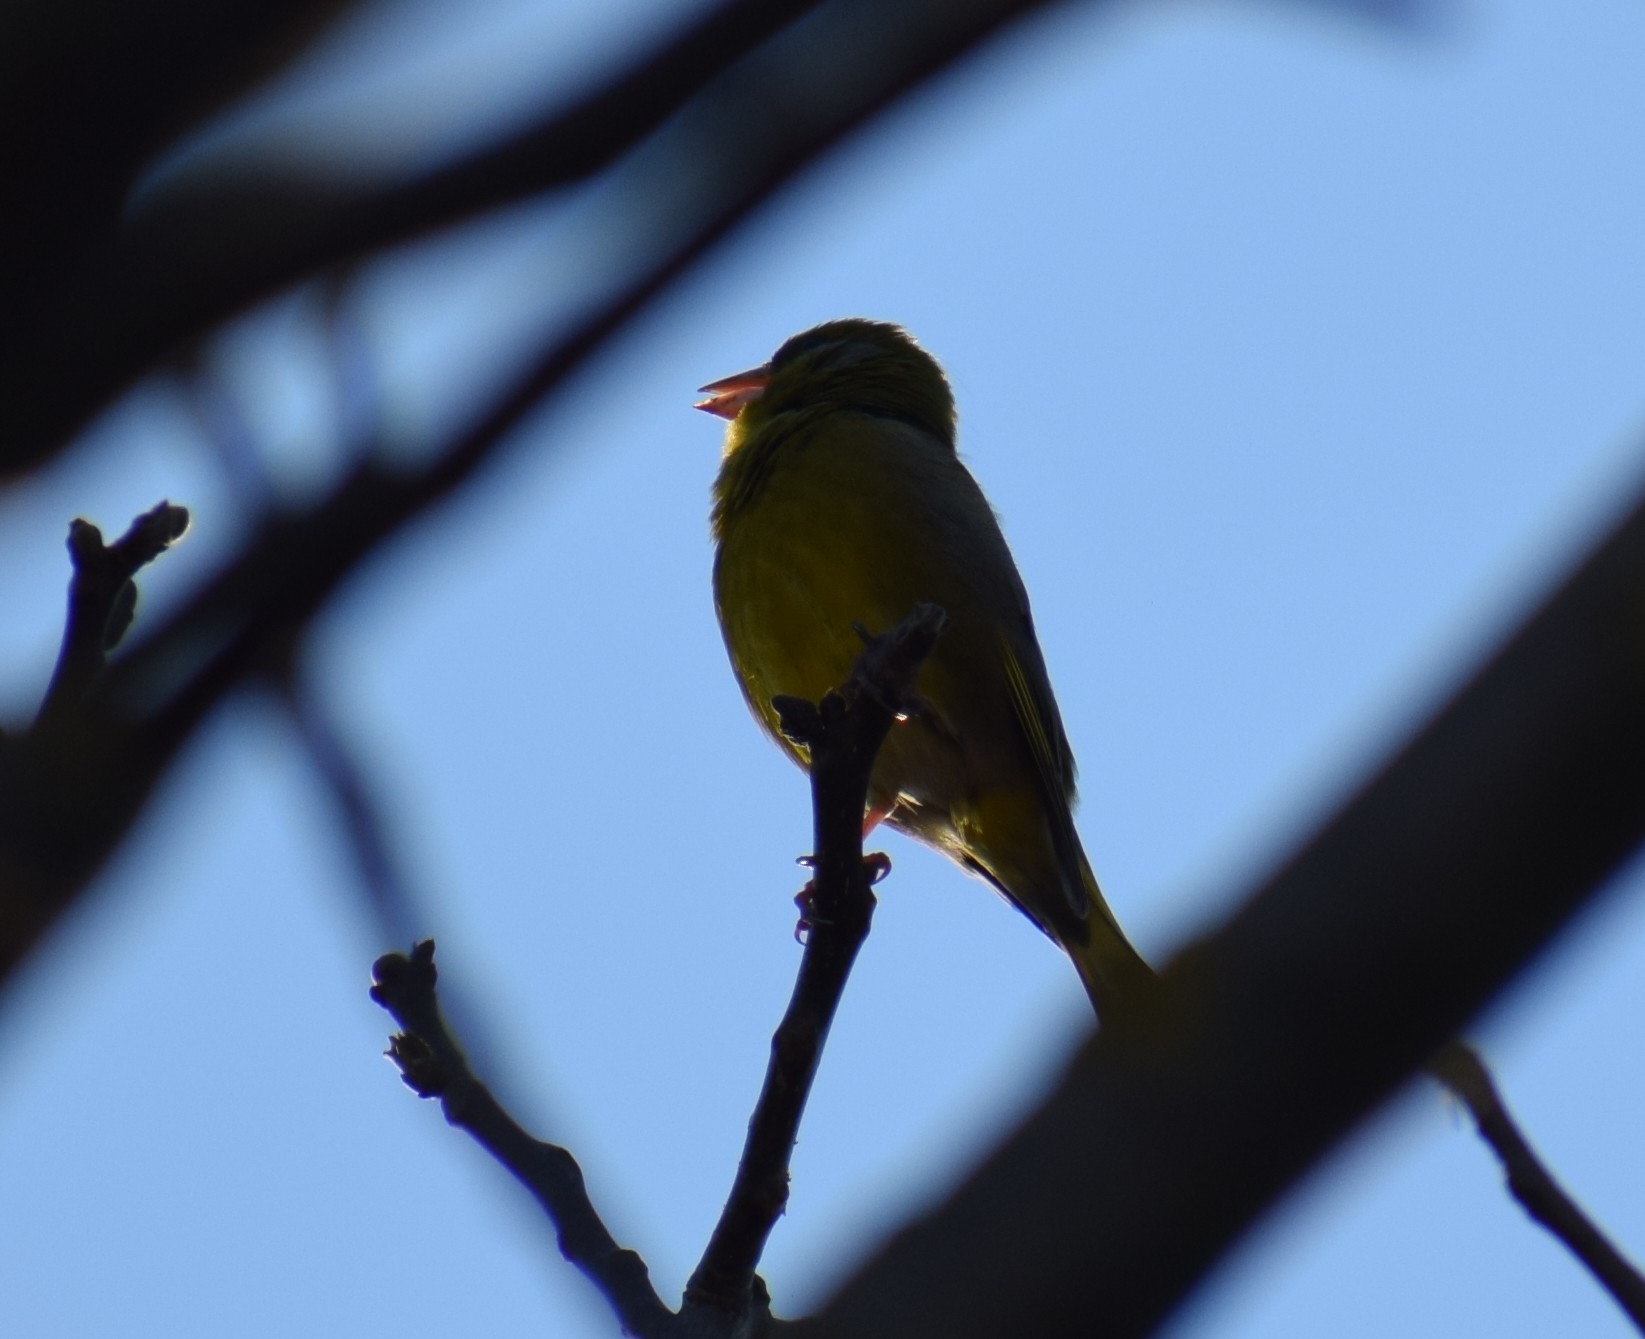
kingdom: Plantae
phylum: Tracheophyta
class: Liliopsida
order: Poales
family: Poaceae
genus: Chloris
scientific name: Chloris chloris
